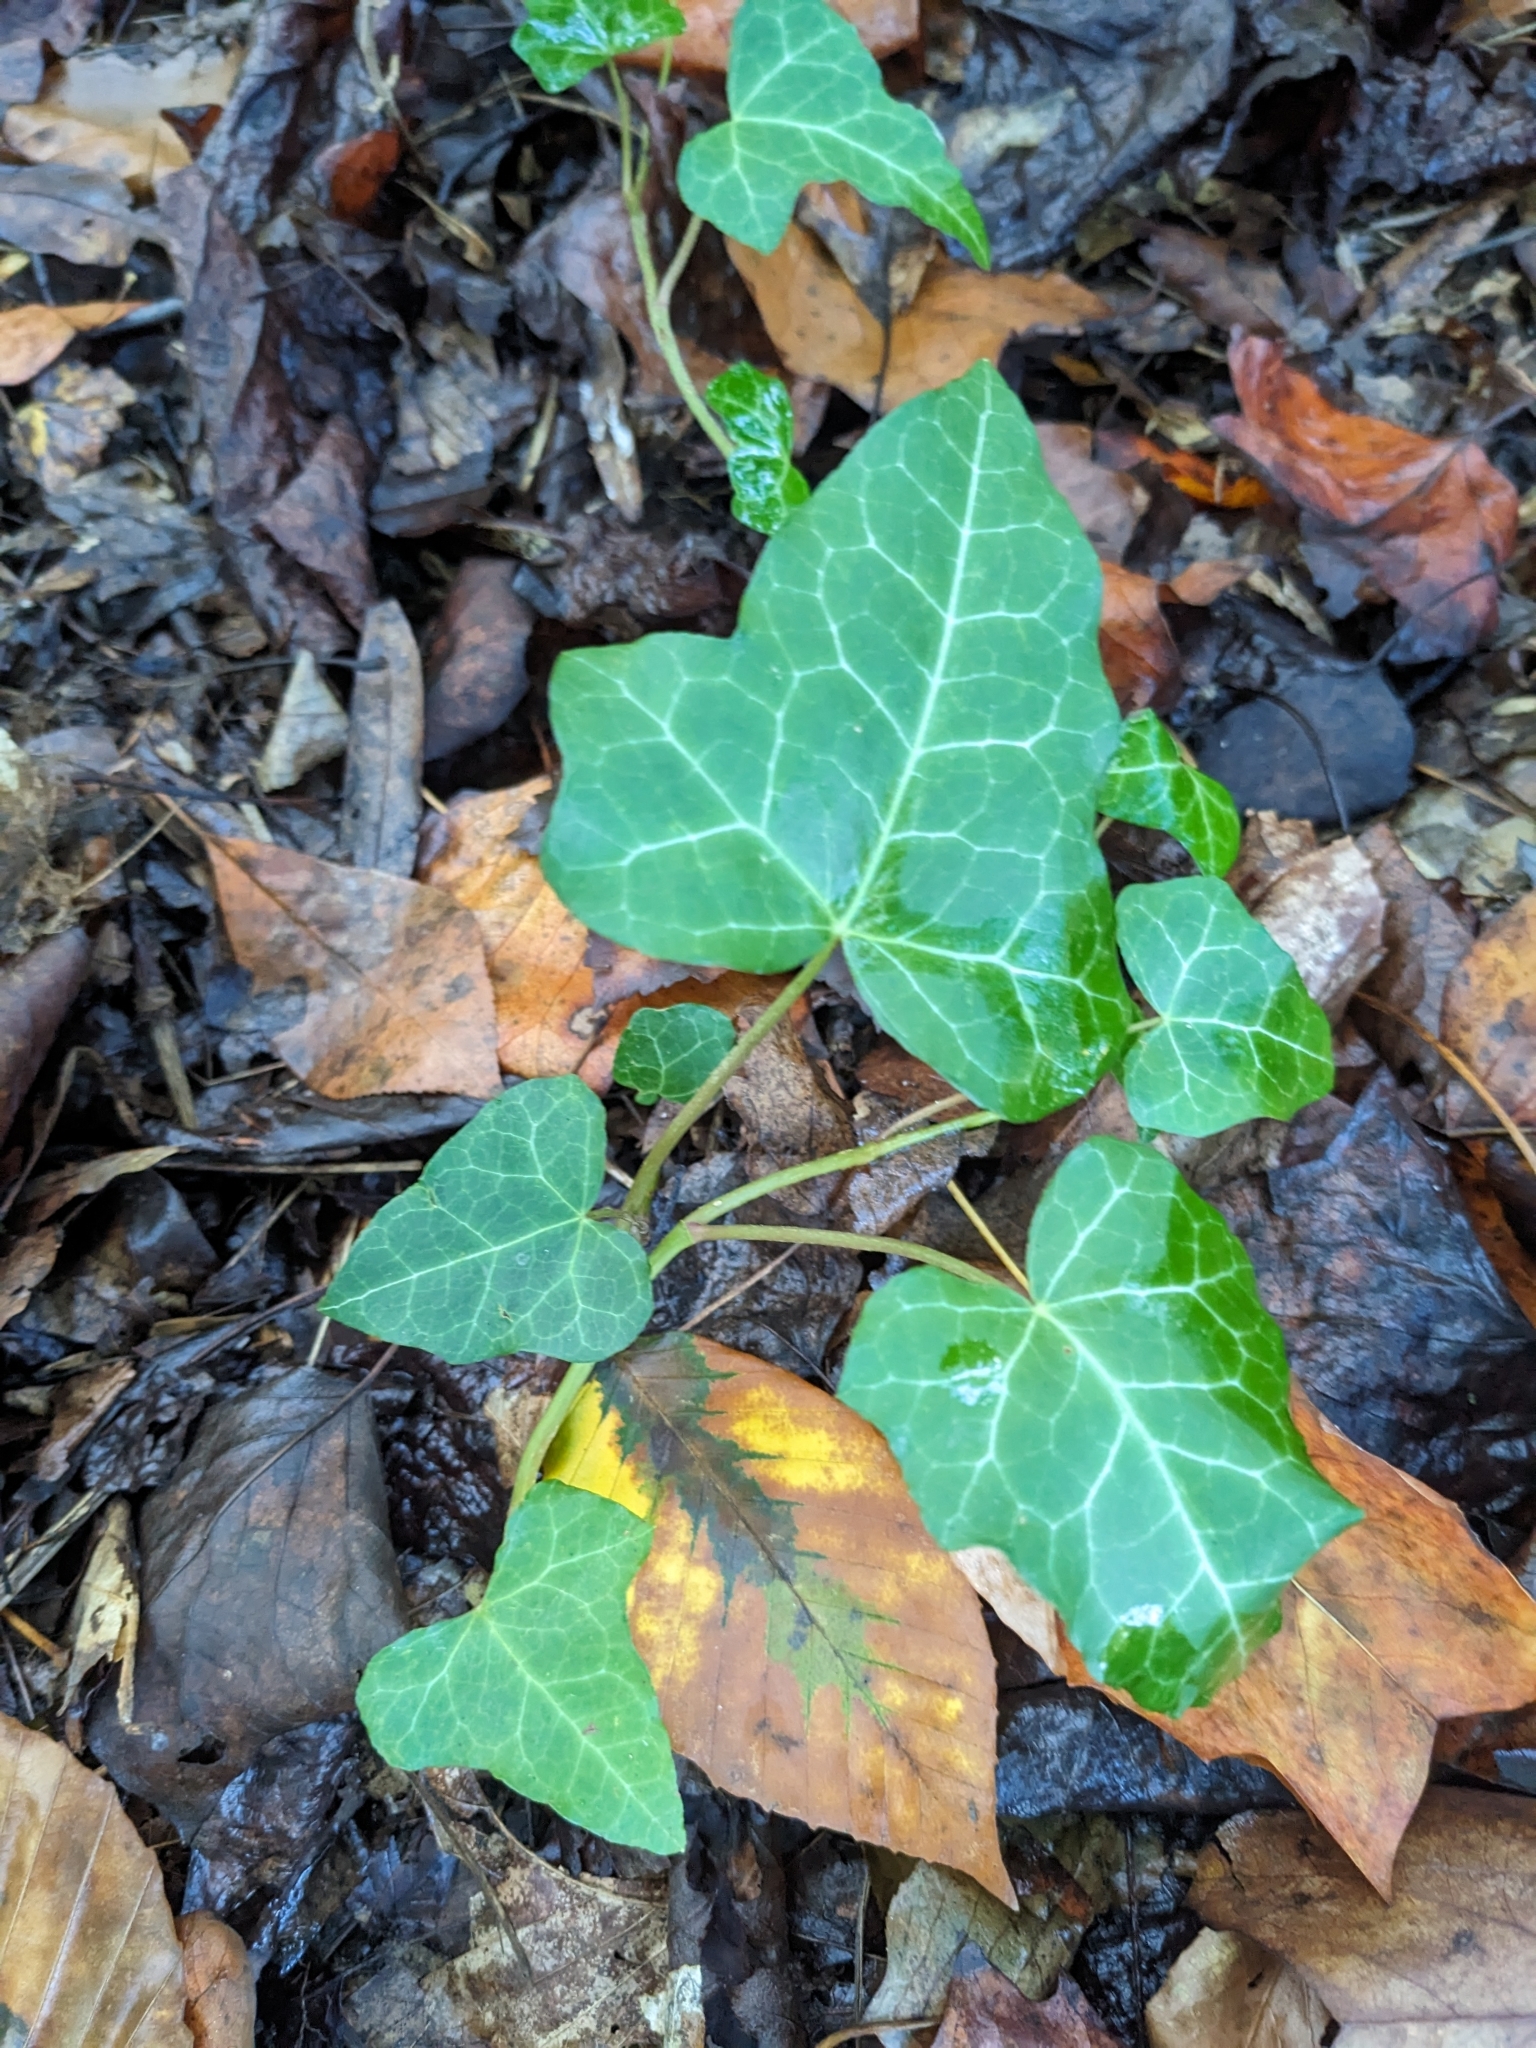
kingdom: Plantae
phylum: Tracheophyta
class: Magnoliopsida
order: Apiales
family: Araliaceae
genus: Hedera
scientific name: Hedera helix
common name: Ivy
